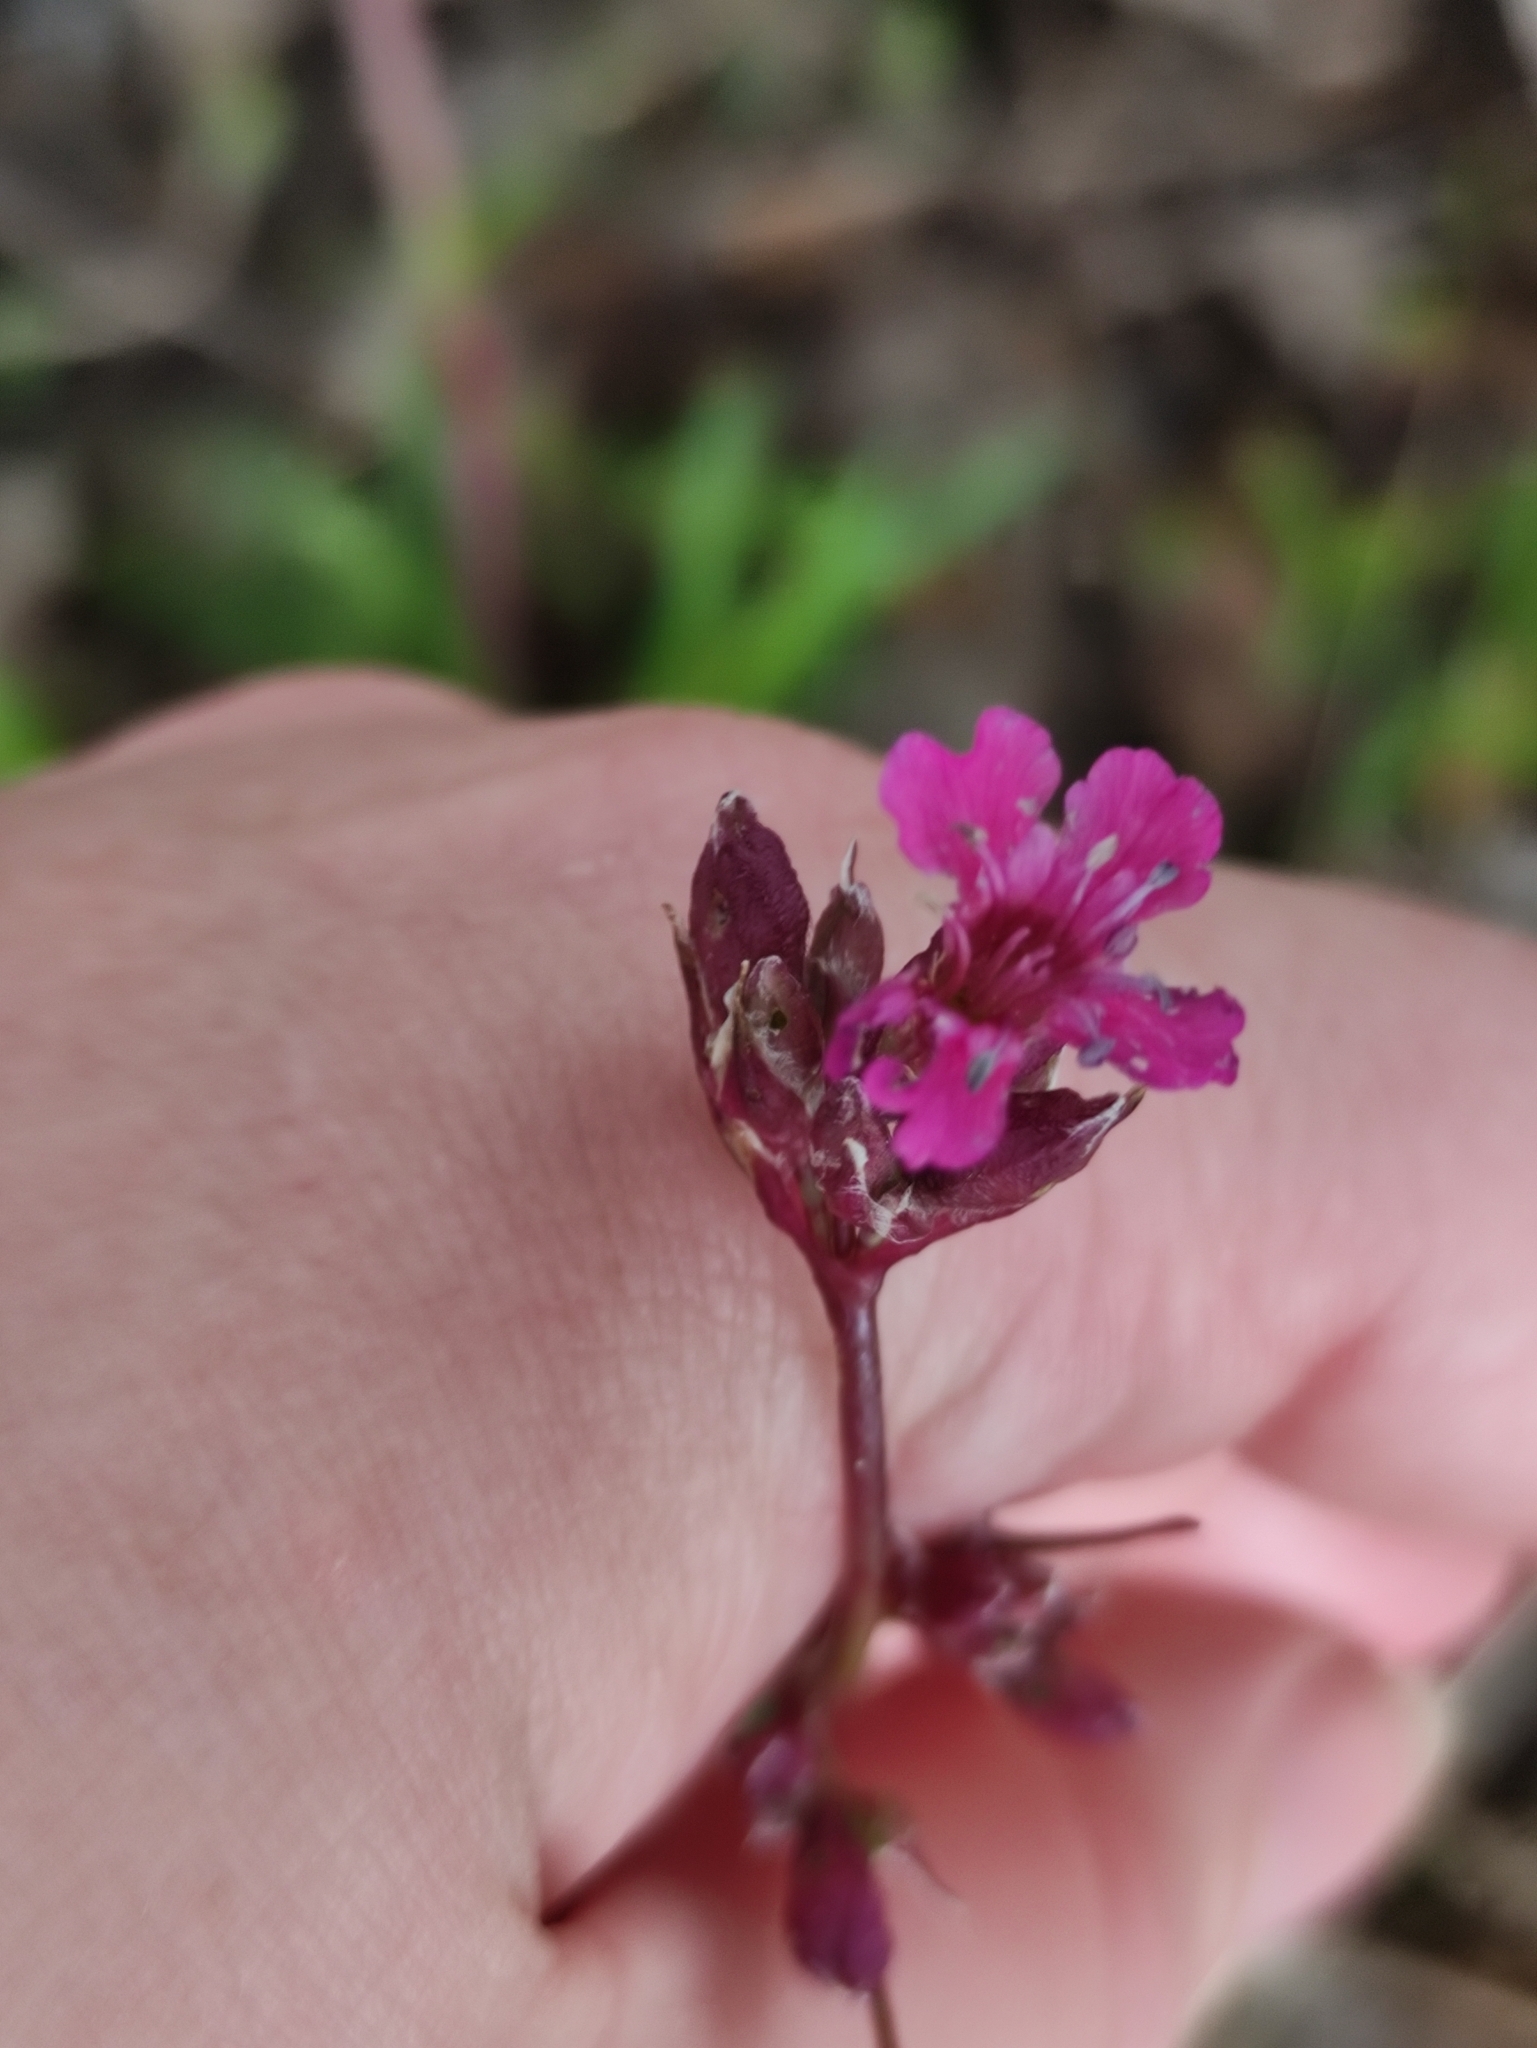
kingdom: Plantae
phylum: Tracheophyta
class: Magnoliopsida
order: Caryophyllales
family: Caryophyllaceae
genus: Viscaria
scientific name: Viscaria vulgaris
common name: Clammy campion
